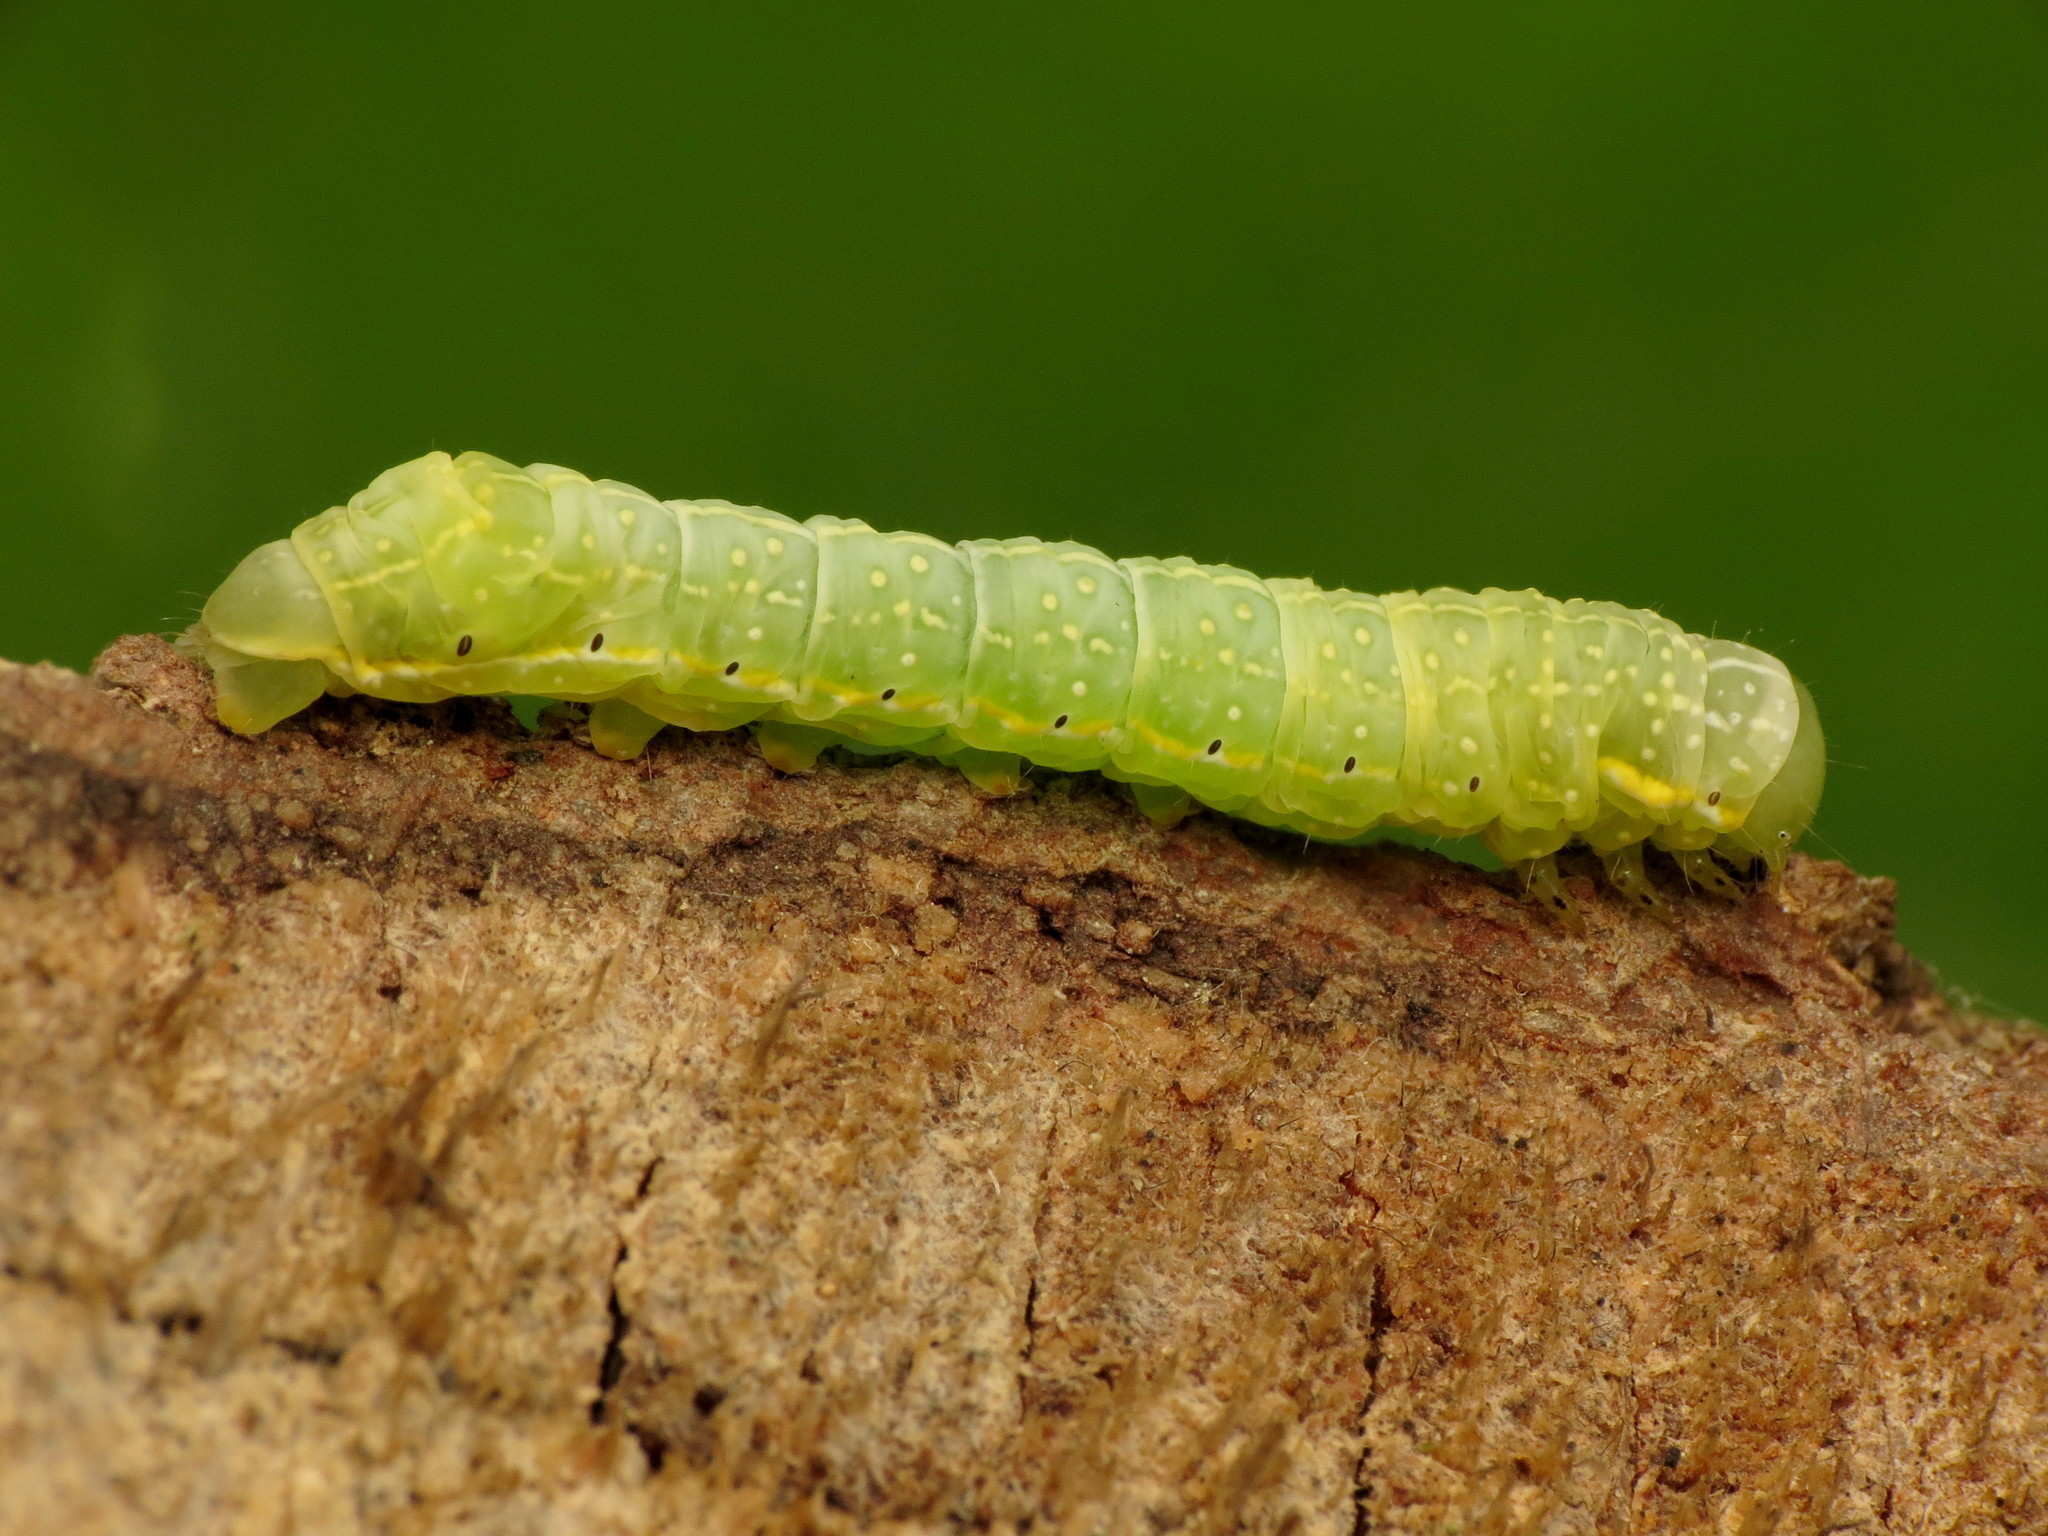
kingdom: Animalia
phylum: Arthropoda
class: Insecta
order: Lepidoptera
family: Noctuidae
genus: Amphipyra
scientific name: Amphipyra pyramidoides
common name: American copper underwing
